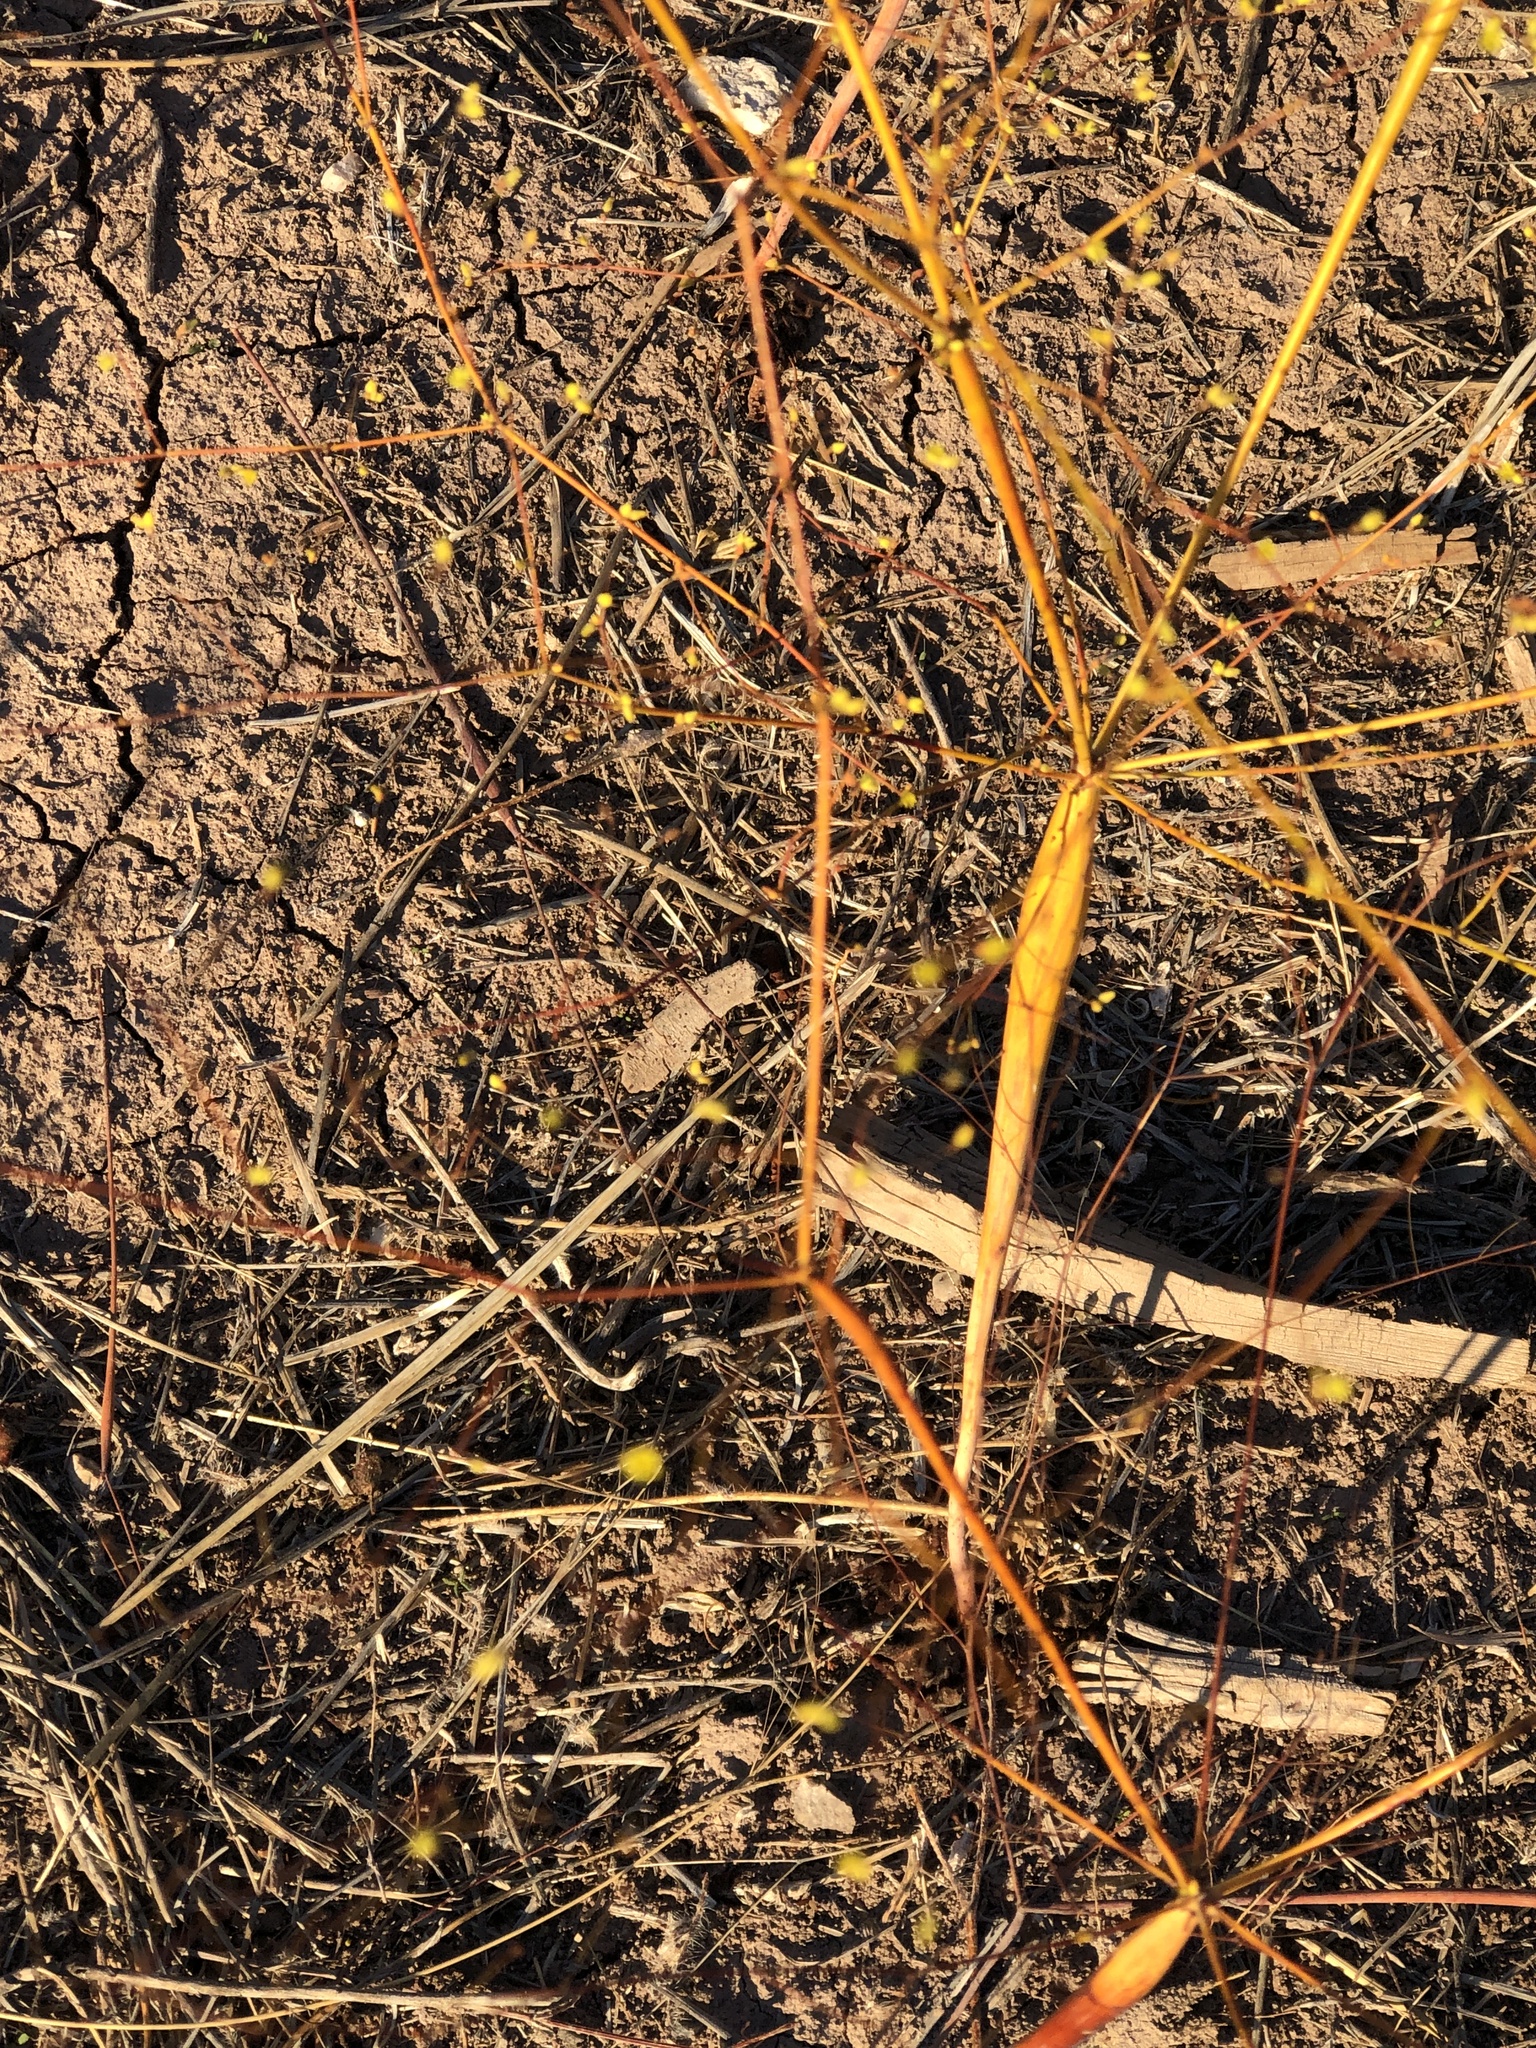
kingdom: Plantae
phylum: Tracheophyta
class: Magnoliopsida
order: Caryophyllales
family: Polygonaceae
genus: Eriogonum
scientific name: Eriogonum inflatum
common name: Desert trumpet
